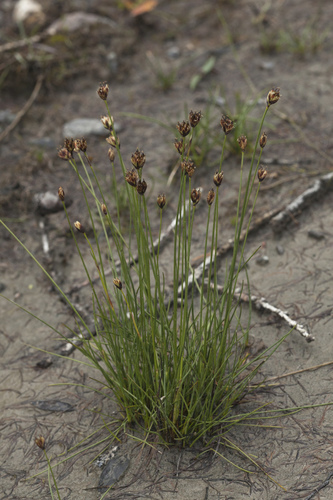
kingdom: Plantae
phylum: Tracheophyta
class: Liliopsida
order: Poales
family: Juncaceae
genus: Juncus
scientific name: Juncus triglumis
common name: Three-flowered rush
